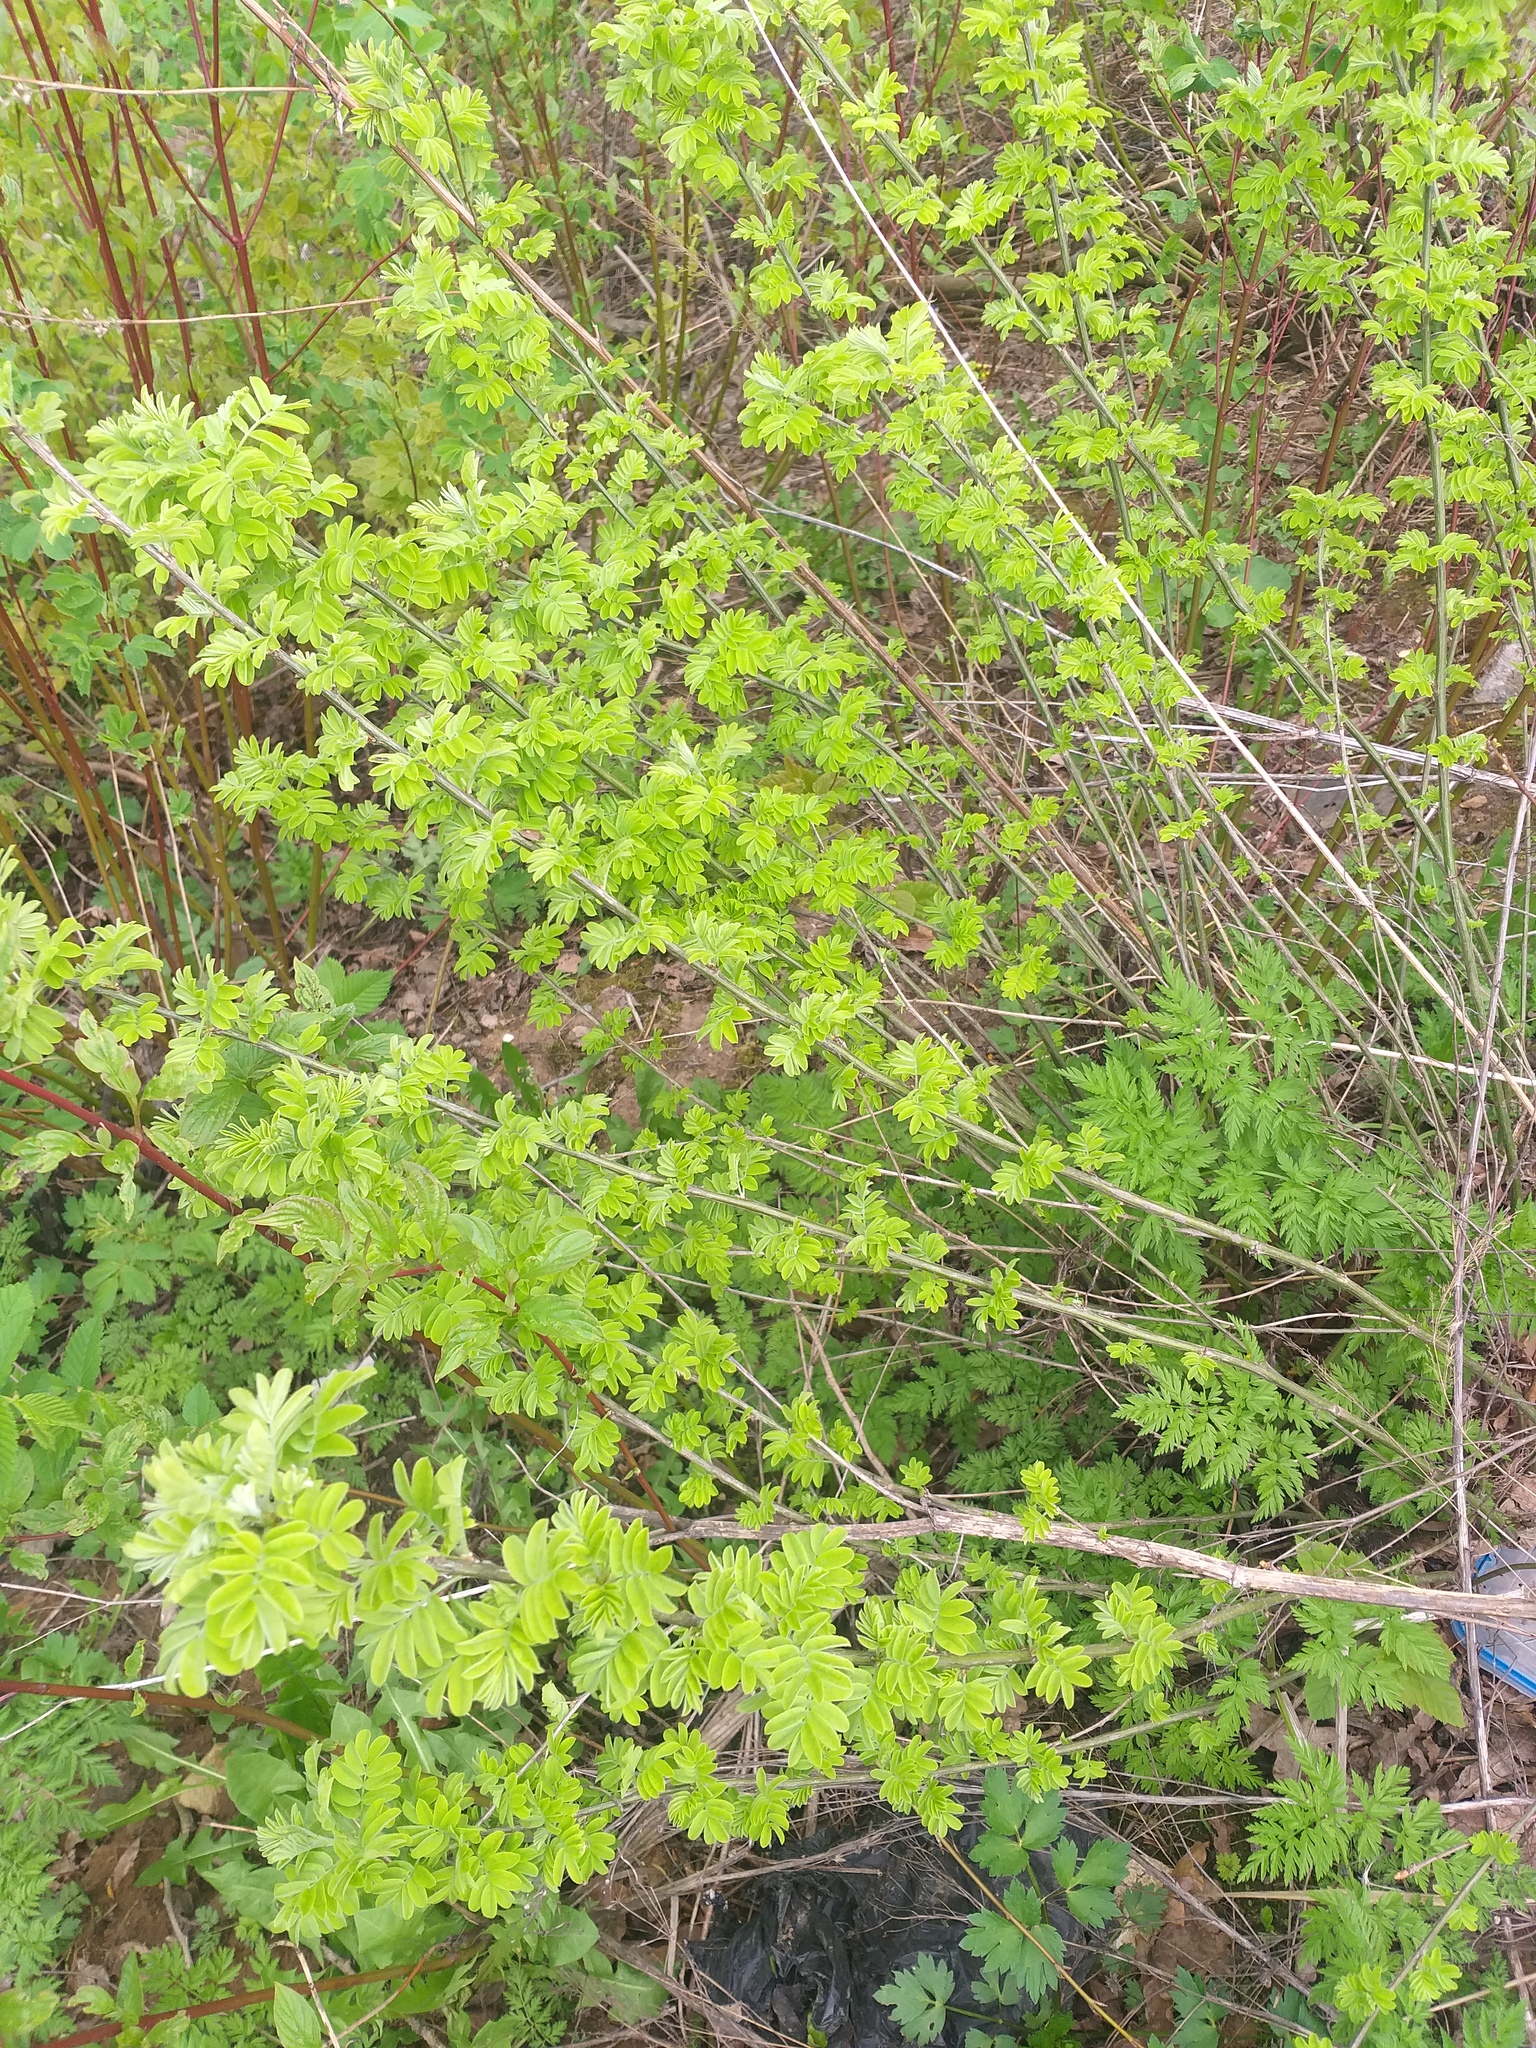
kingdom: Plantae
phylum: Tracheophyta
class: Magnoliopsida
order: Fabales
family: Fabaceae
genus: Caragana
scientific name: Caragana arborescens
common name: Siberian peashrub
